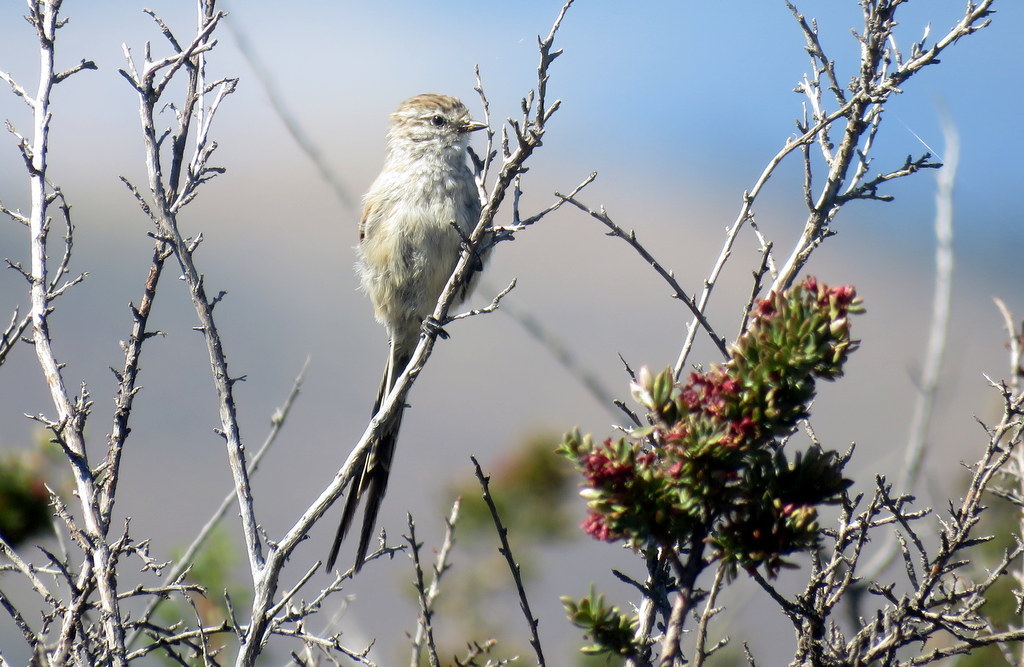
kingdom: Animalia
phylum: Chordata
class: Aves
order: Passeriformes
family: Furnariidae
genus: Leptasthenura
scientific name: Leptasthenura aegithaloides
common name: Plain-mantled tit-spinetail
